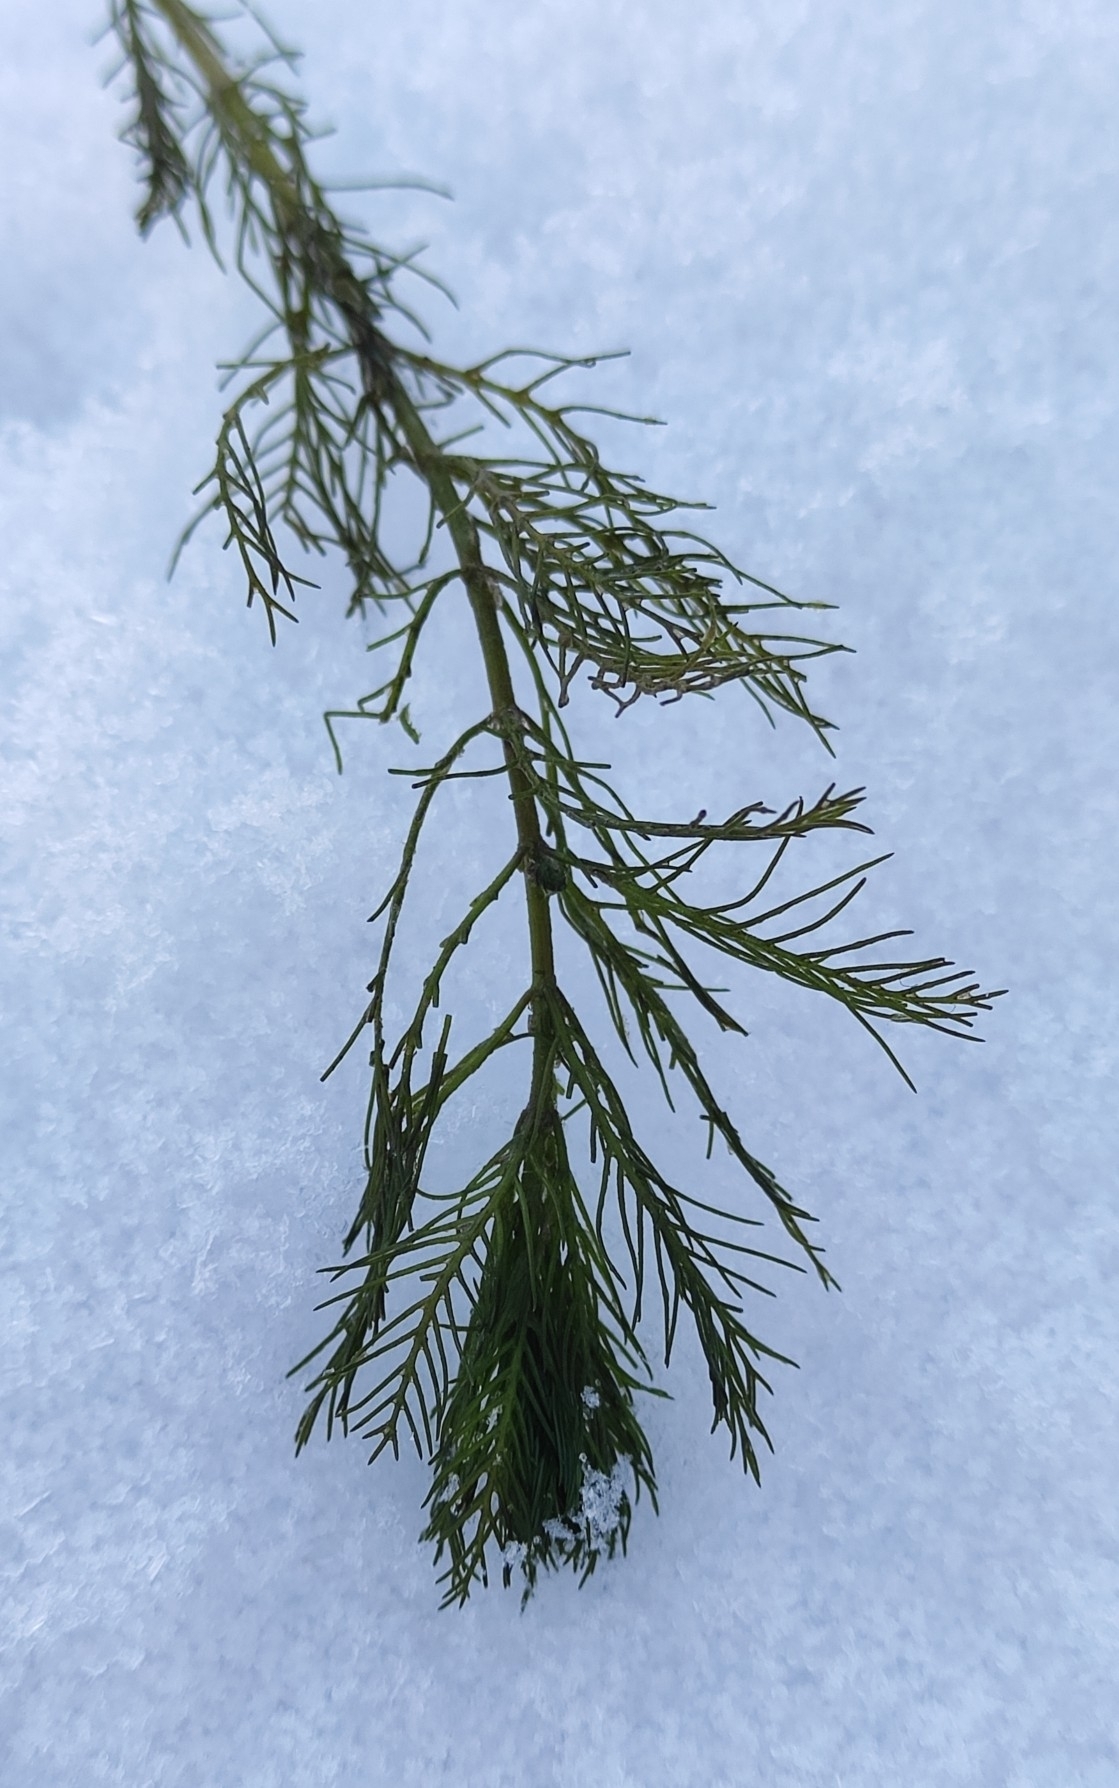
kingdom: Plantae
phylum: Tracheophyta
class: Magnoliopsida
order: Saxifragales
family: Haloragaceae
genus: Myriophyllum
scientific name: Myriophyllum sibiricum
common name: Siberian water-milfoil
